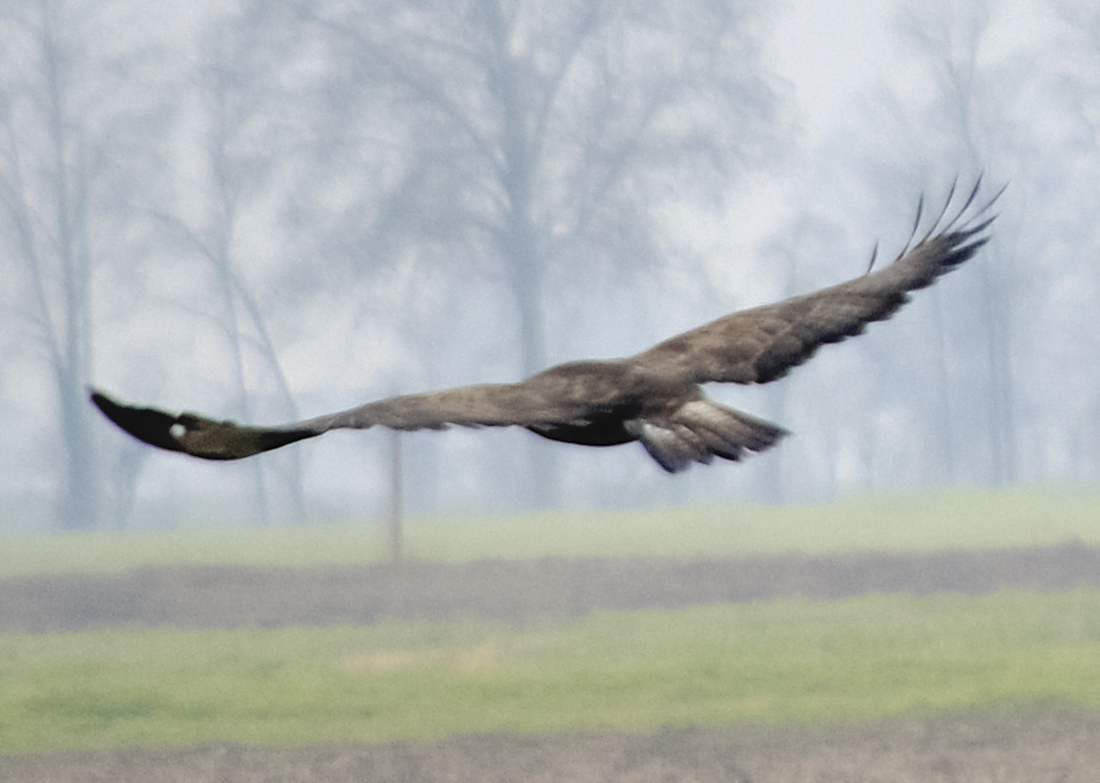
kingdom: Animalia
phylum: Chordata
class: Aves
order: Accipitriformes
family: Accipitridae
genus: Buteo
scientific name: Buteo buteo
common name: Common buzzard
